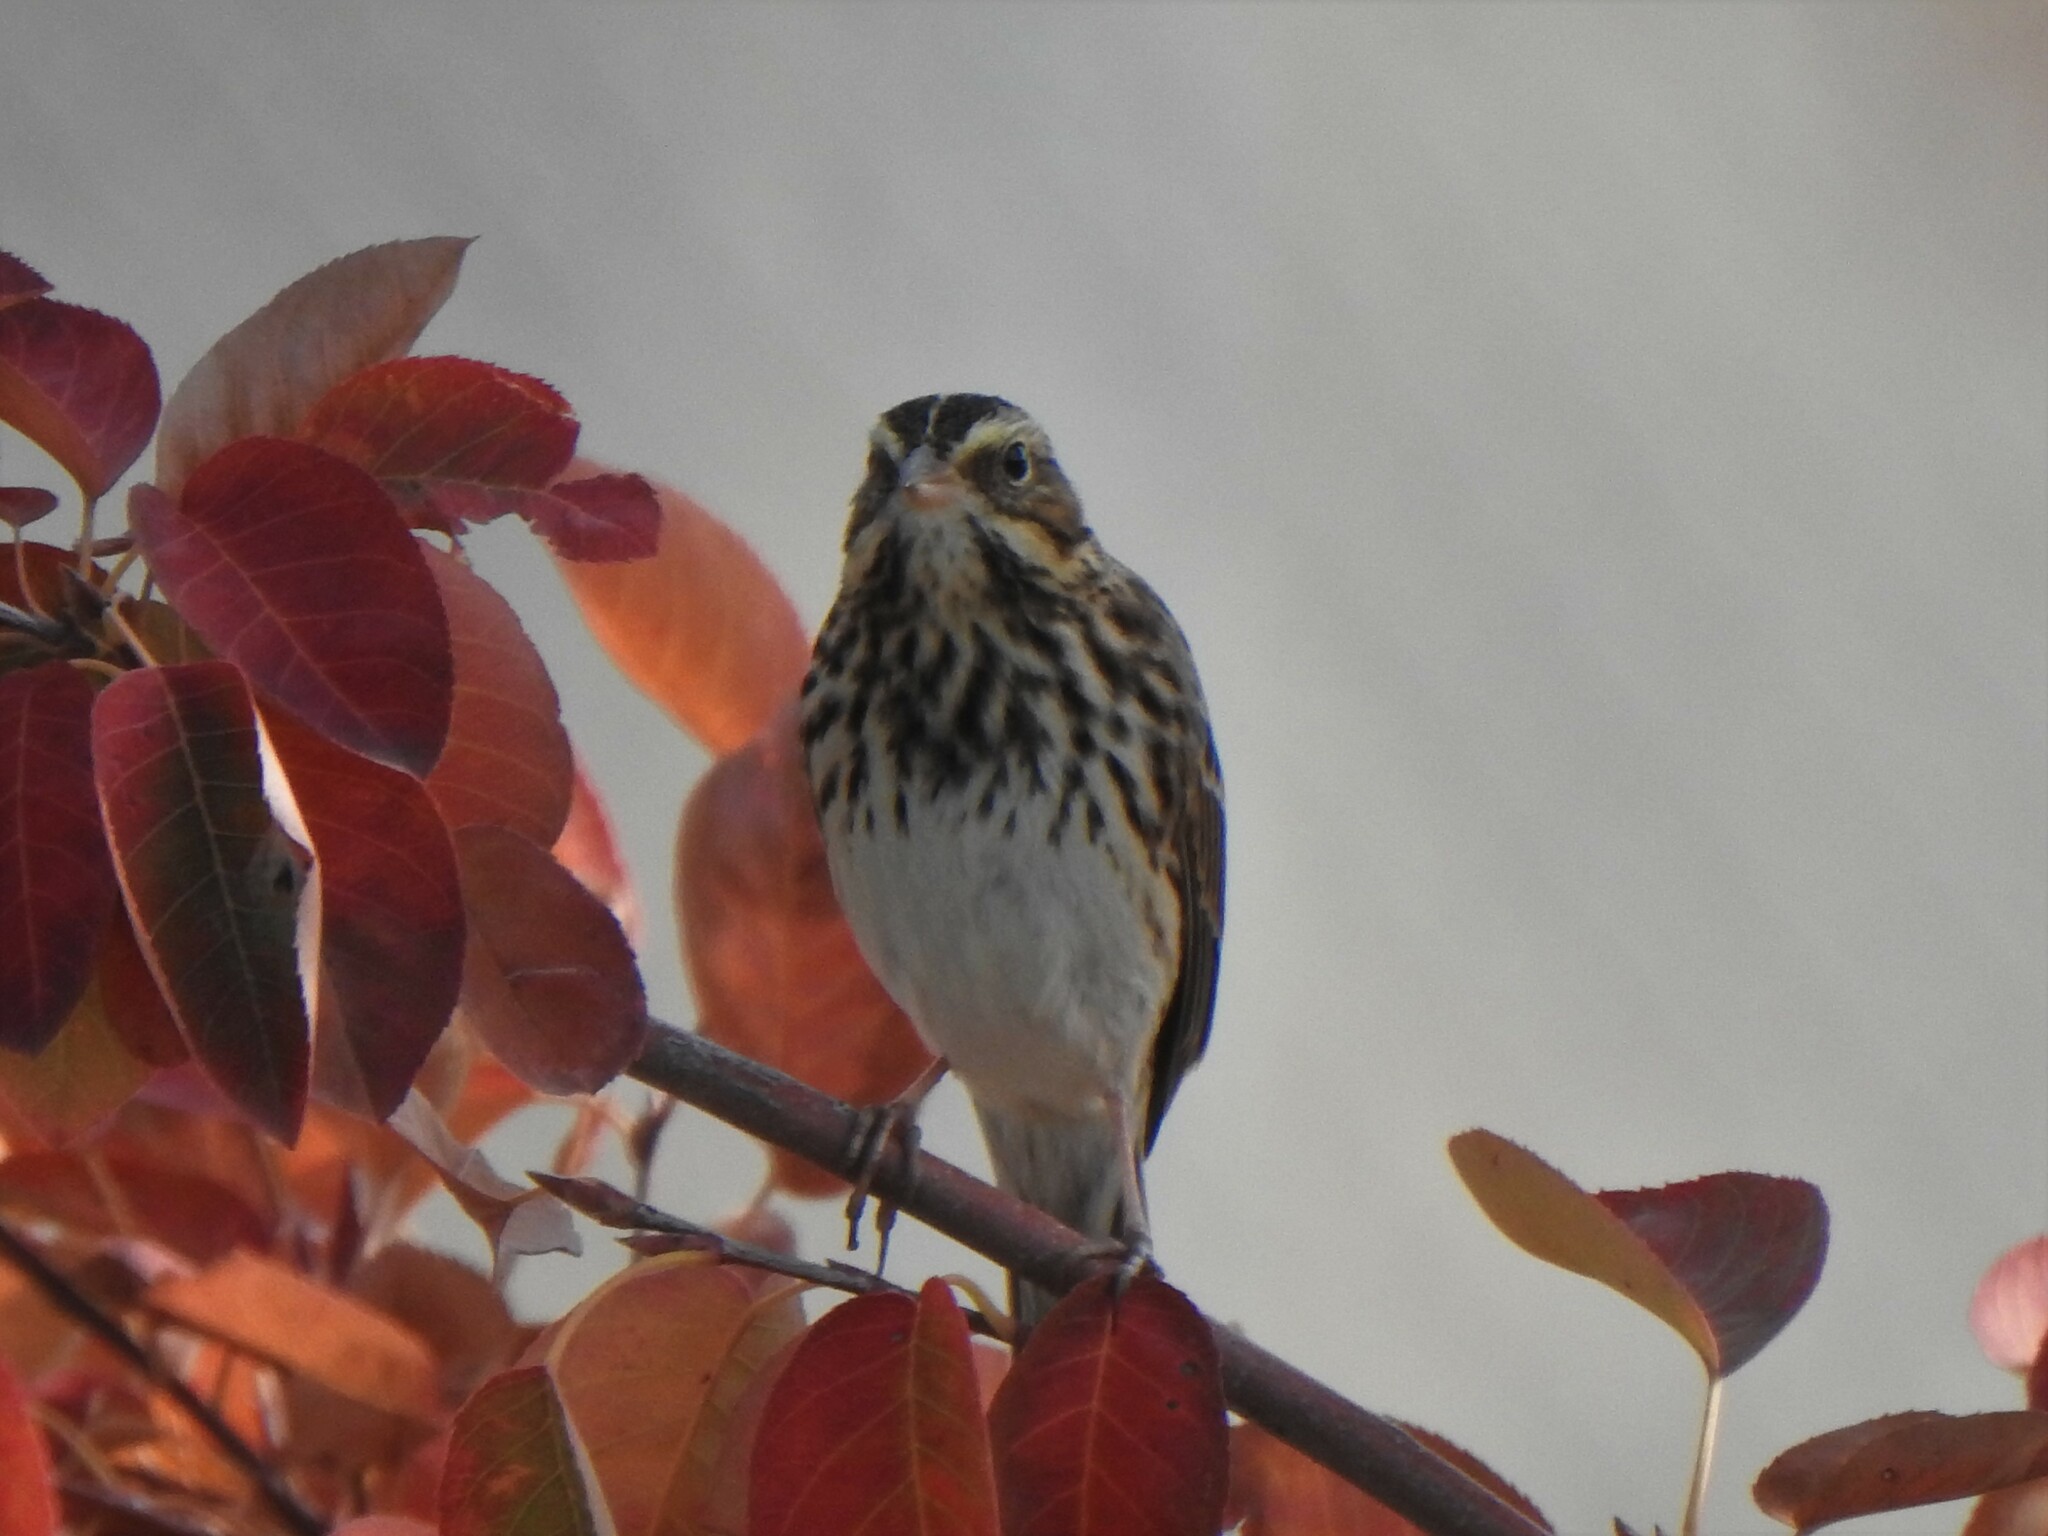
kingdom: Animalia
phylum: Chordata
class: Aves
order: Passeriformes
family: Passerellidae
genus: Passerculus
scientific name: Passerculus sandwichensis
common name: Savannah sparrow
